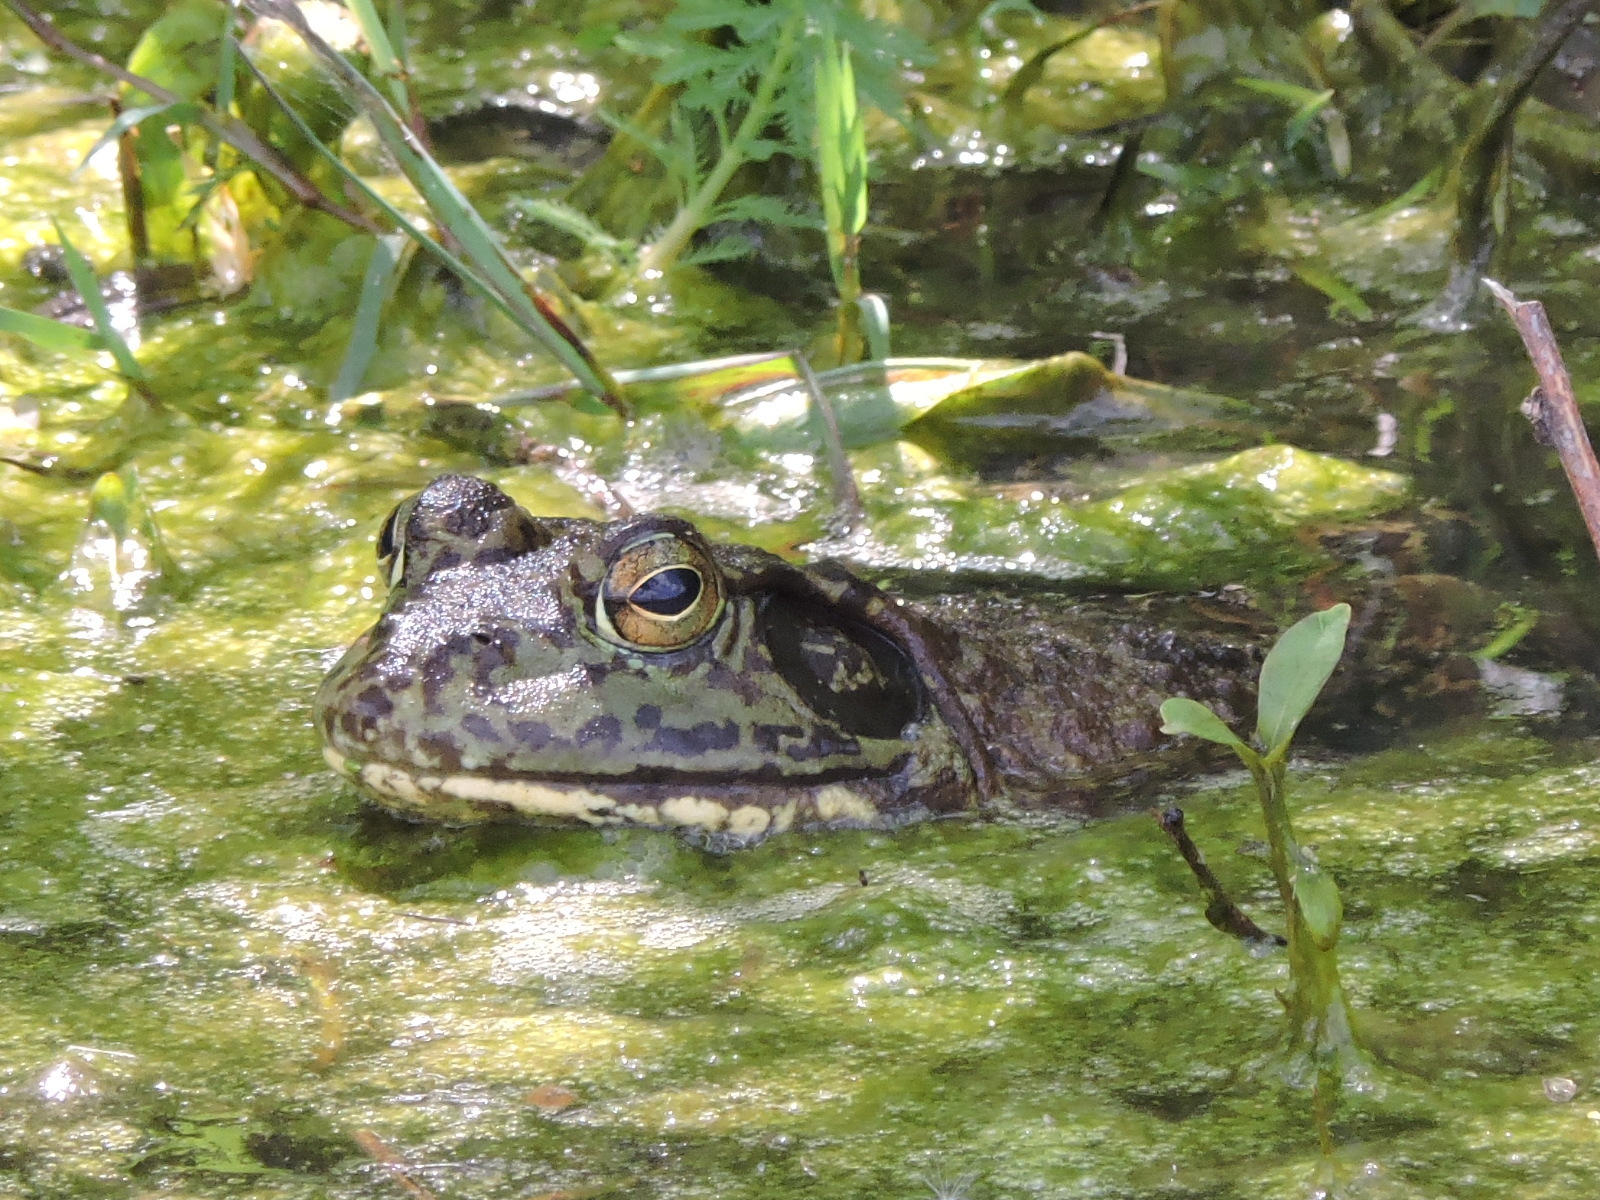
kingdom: Animalia
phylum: Chordata
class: Amphibia
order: Anura
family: Ranidae
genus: Lithobates
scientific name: Lithobates catesbeianus
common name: American bullfrog
